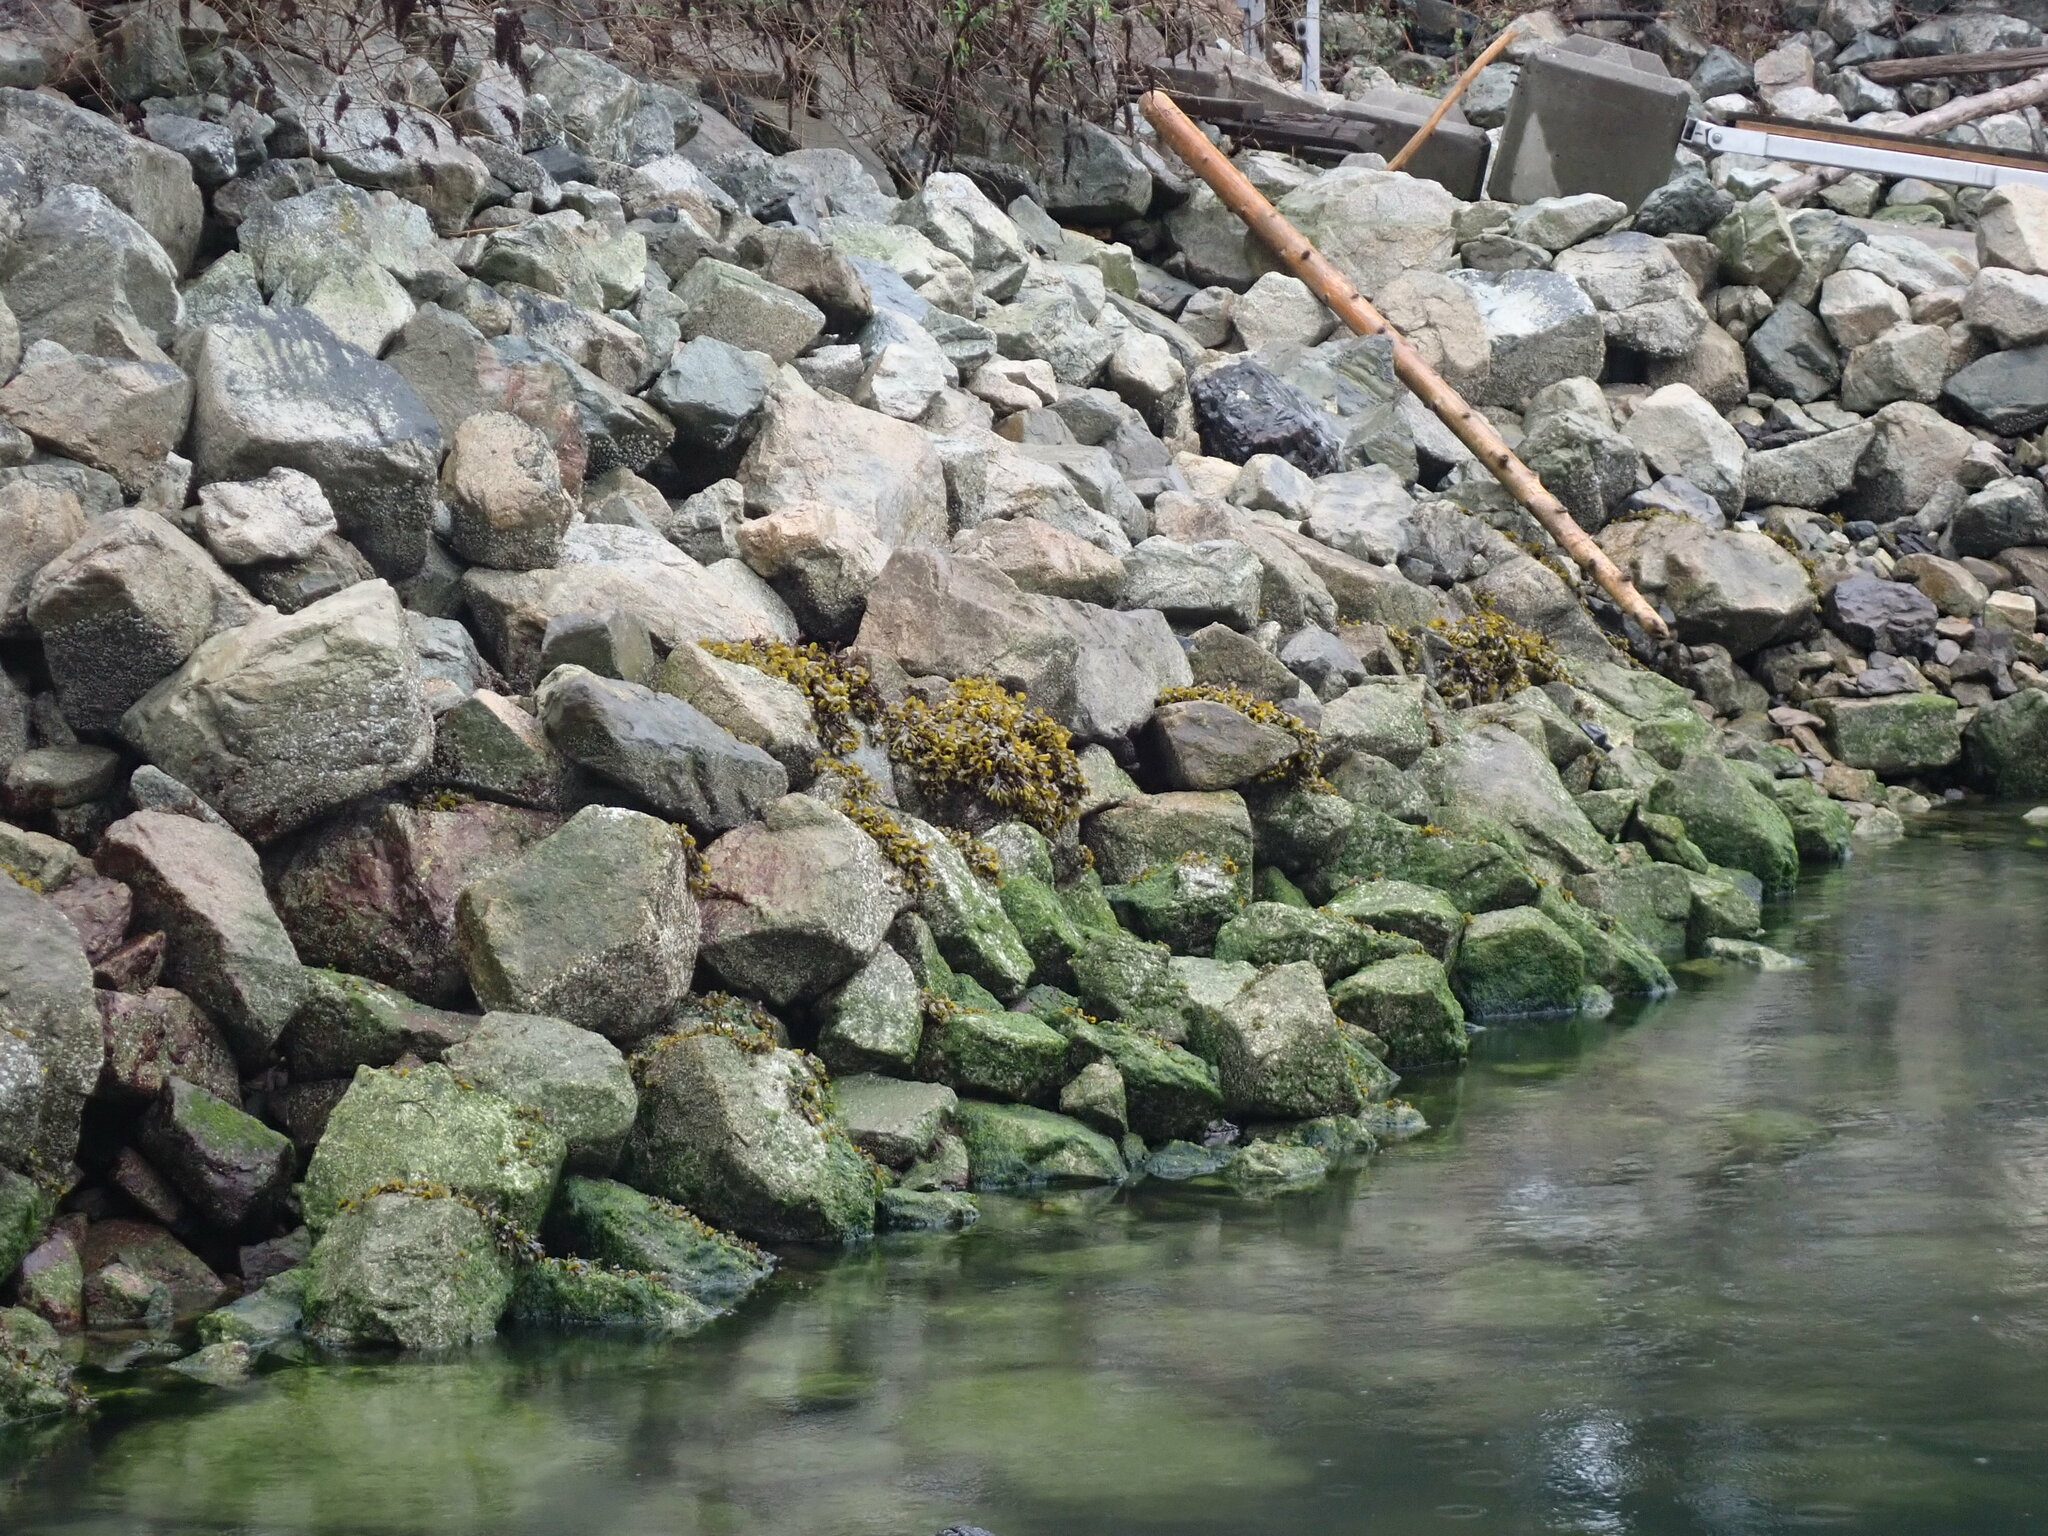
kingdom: Chromista
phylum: Ochrophyta
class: Phaeophyceae
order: Fucales
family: Fucaceae
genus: Fucus
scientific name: Fucus distichus
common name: Rockweed
